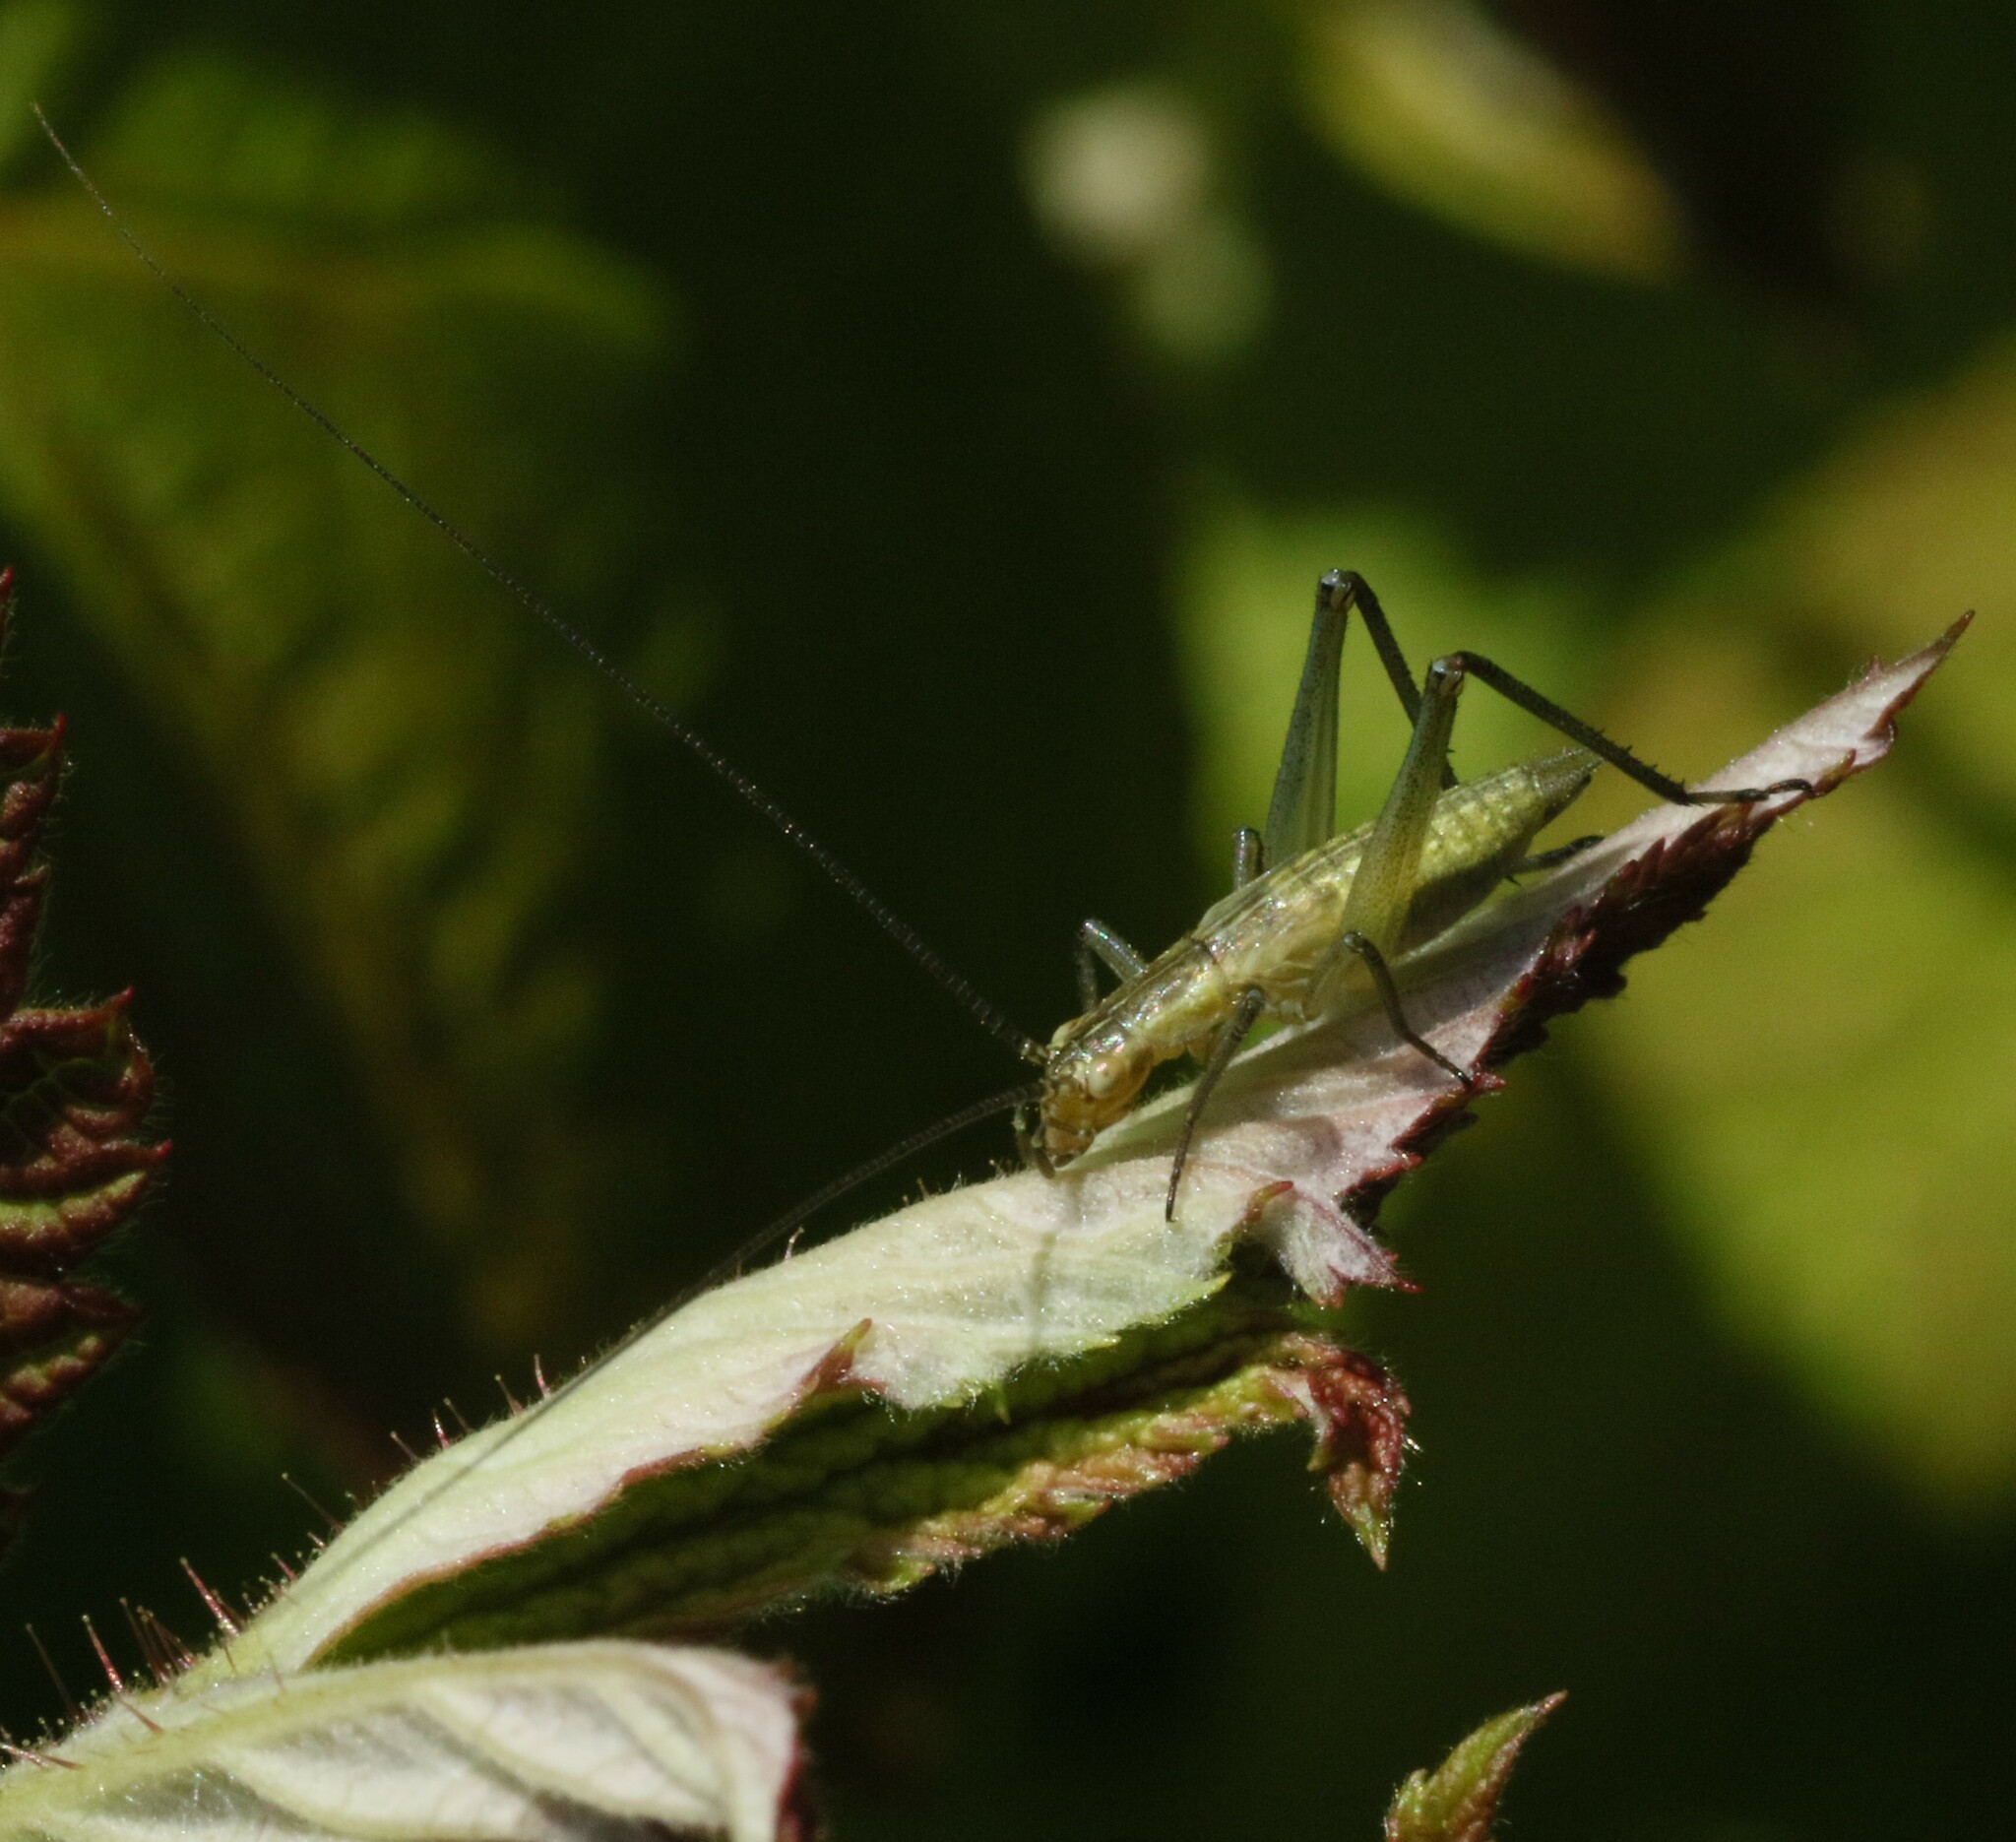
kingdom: Animalia
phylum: Arthropoda
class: Insecta
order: Orthoptera
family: Gryllidae
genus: Oecanthus
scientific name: Oecanthus nigricornis
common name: Black-horned tree cricket
